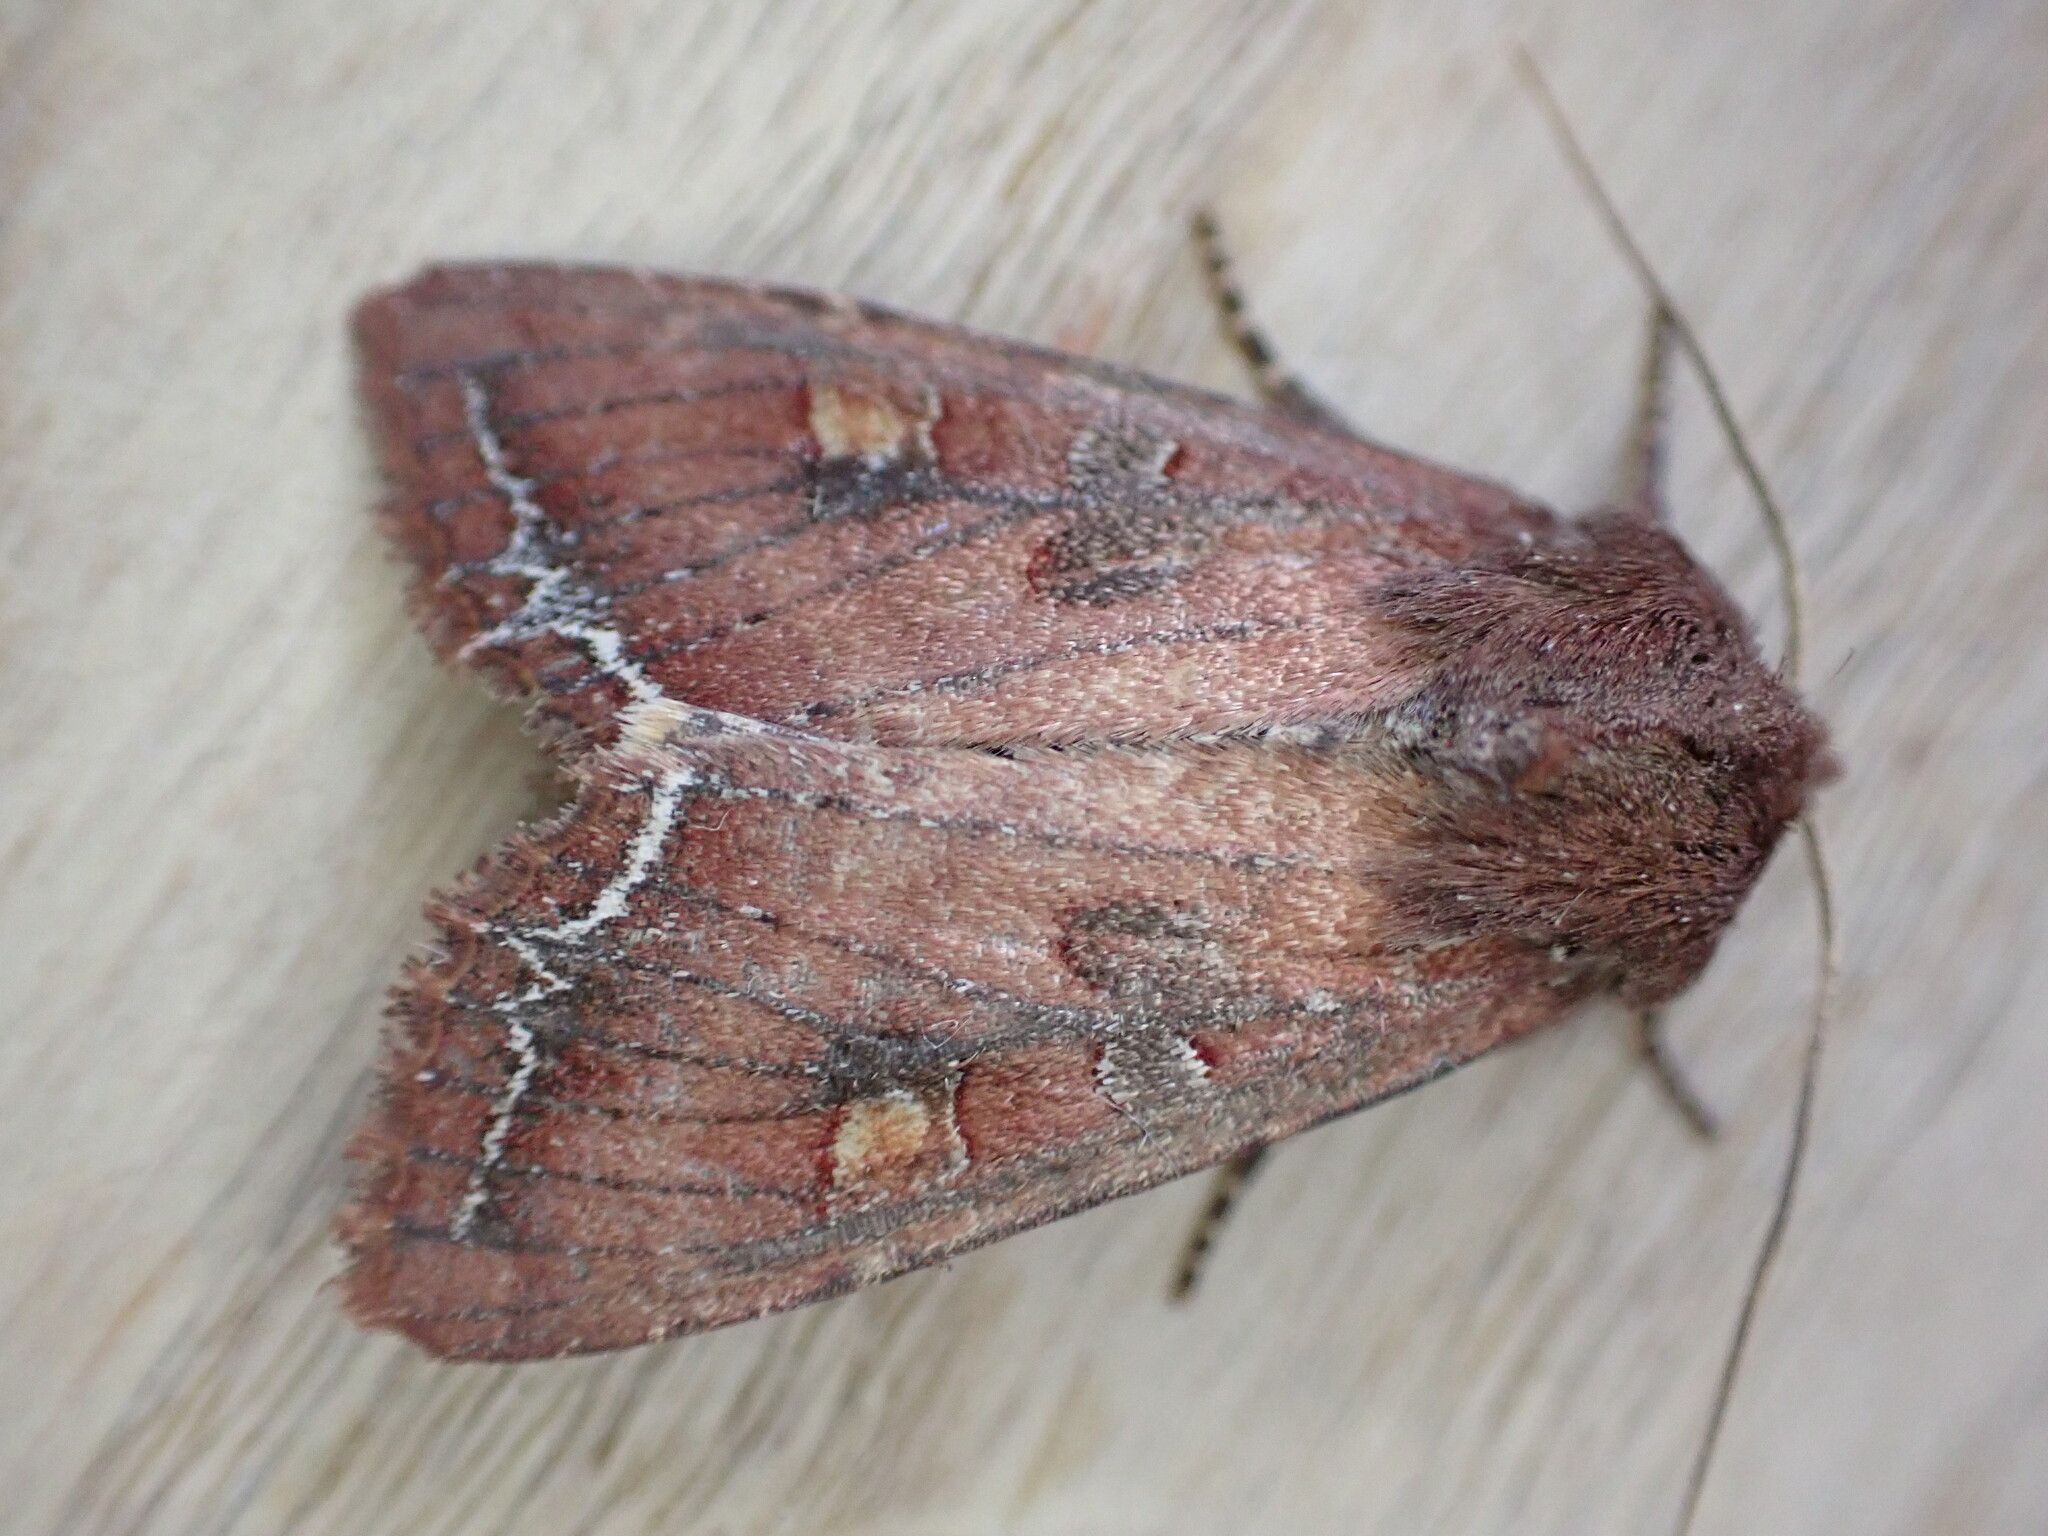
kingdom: Animalia
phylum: Arthropoda
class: Insecta
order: Lepidoptera
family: Noctuidae
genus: Lacanobia
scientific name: Lacanobia oleracea
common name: Bright-line brown-eye
